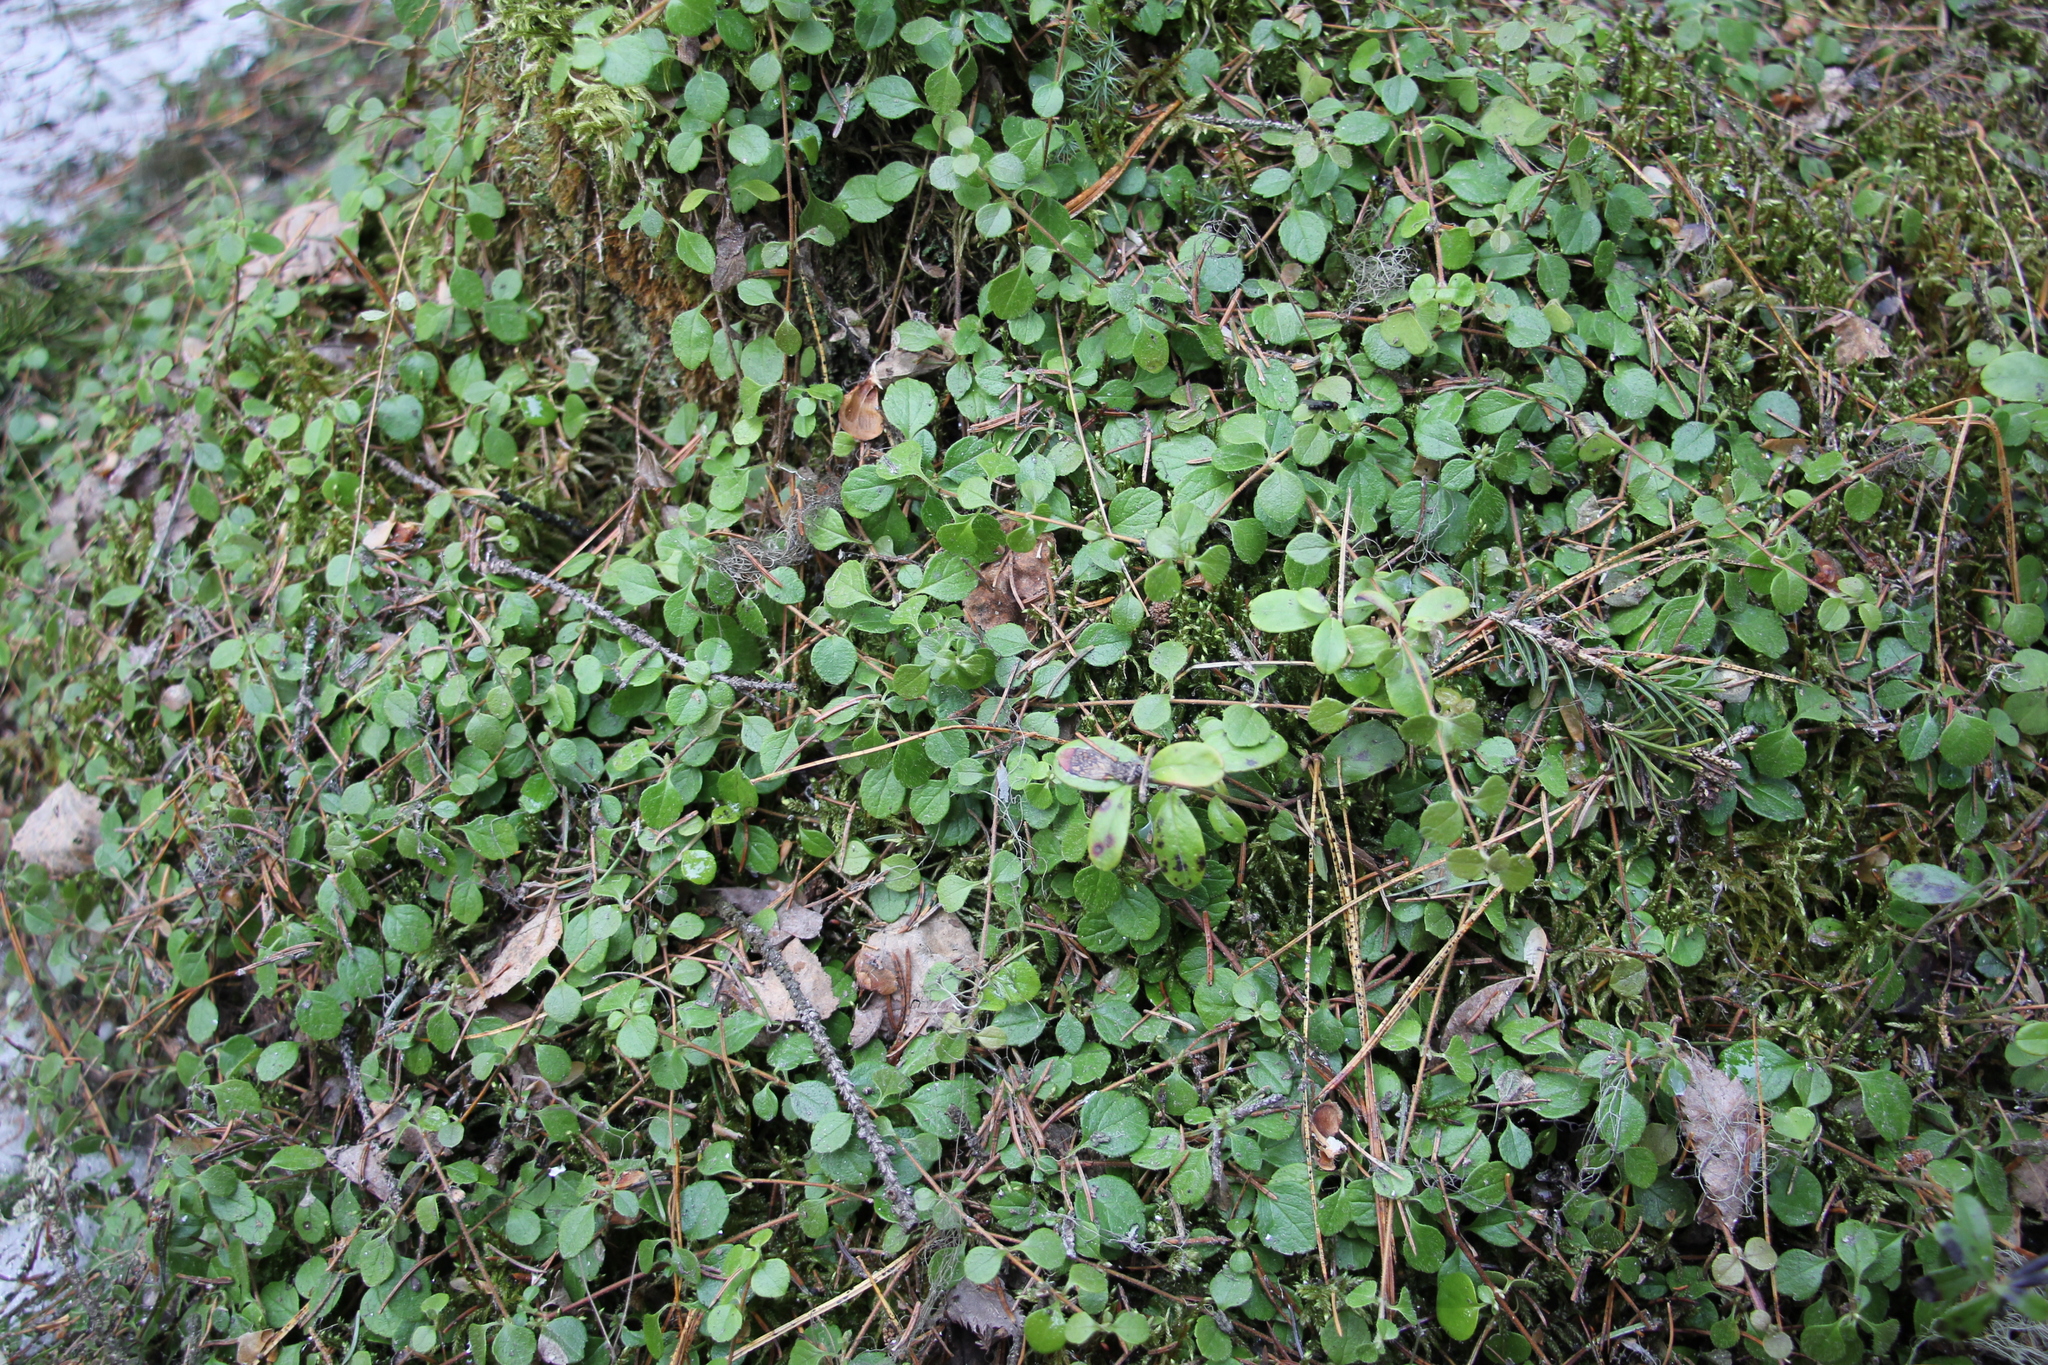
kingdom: Plantae
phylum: Tracheophyta
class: Magnoliopsida
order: Dipsacales
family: Caprifoliaceae
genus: Linnaea
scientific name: Linnaea borealis
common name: Twinflower
